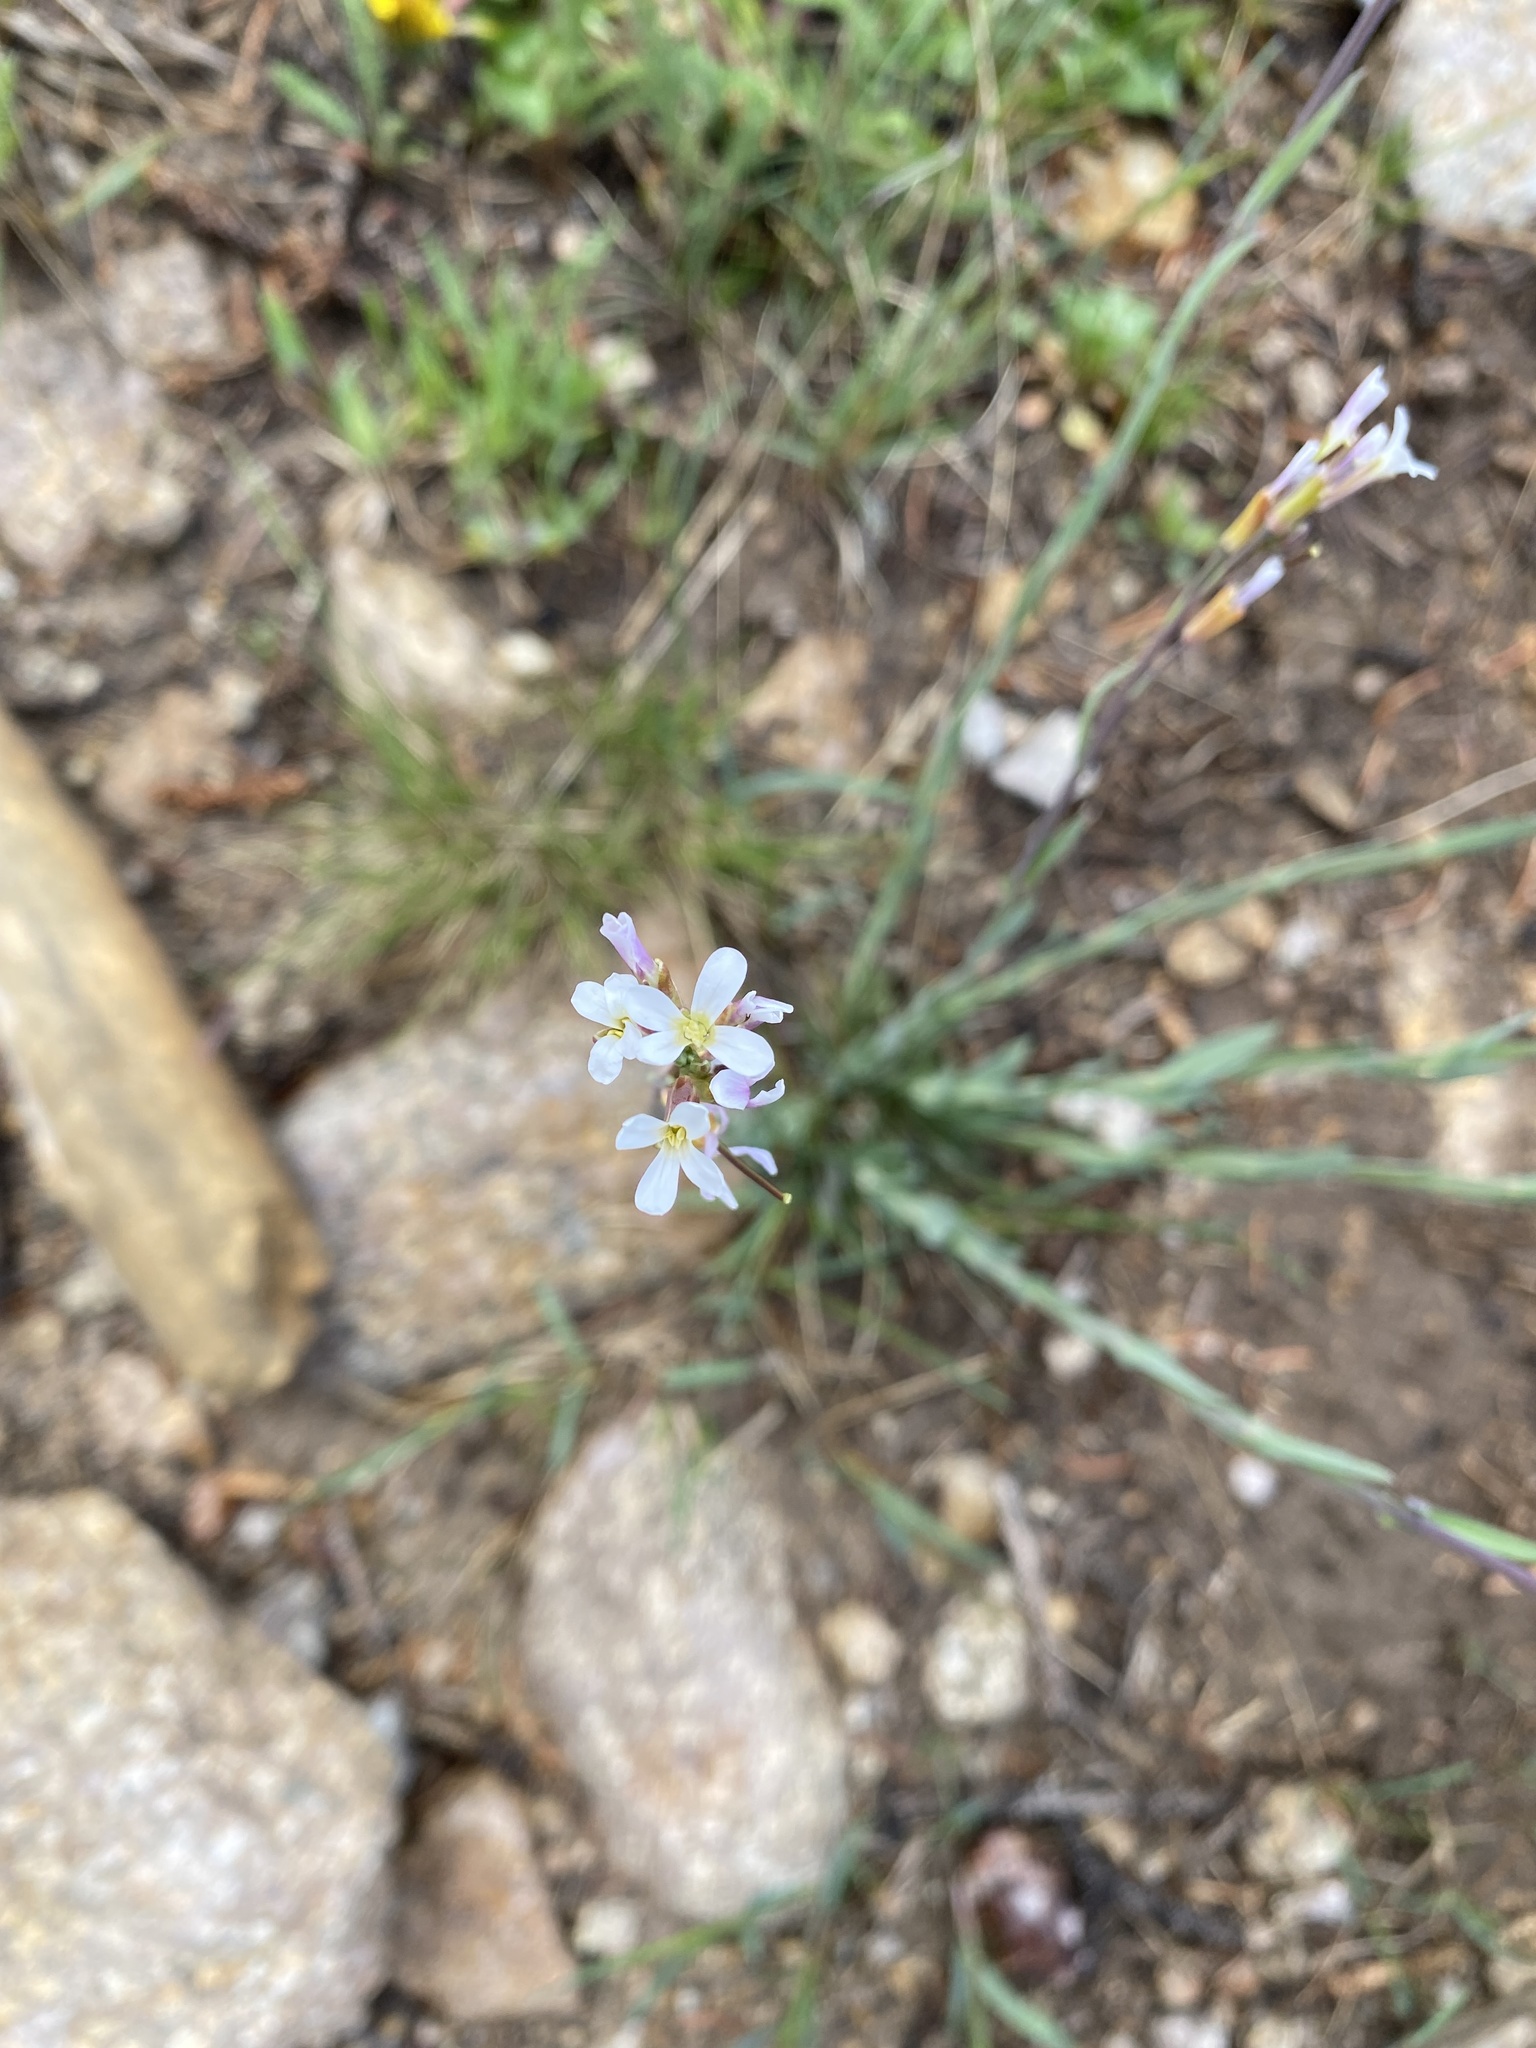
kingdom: Plantae
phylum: Tracheophyta
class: Magnoliopsida
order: Brassicales
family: Brassicaceae
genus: Boechera
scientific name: Boechera stricta
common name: Canadian rockcress
